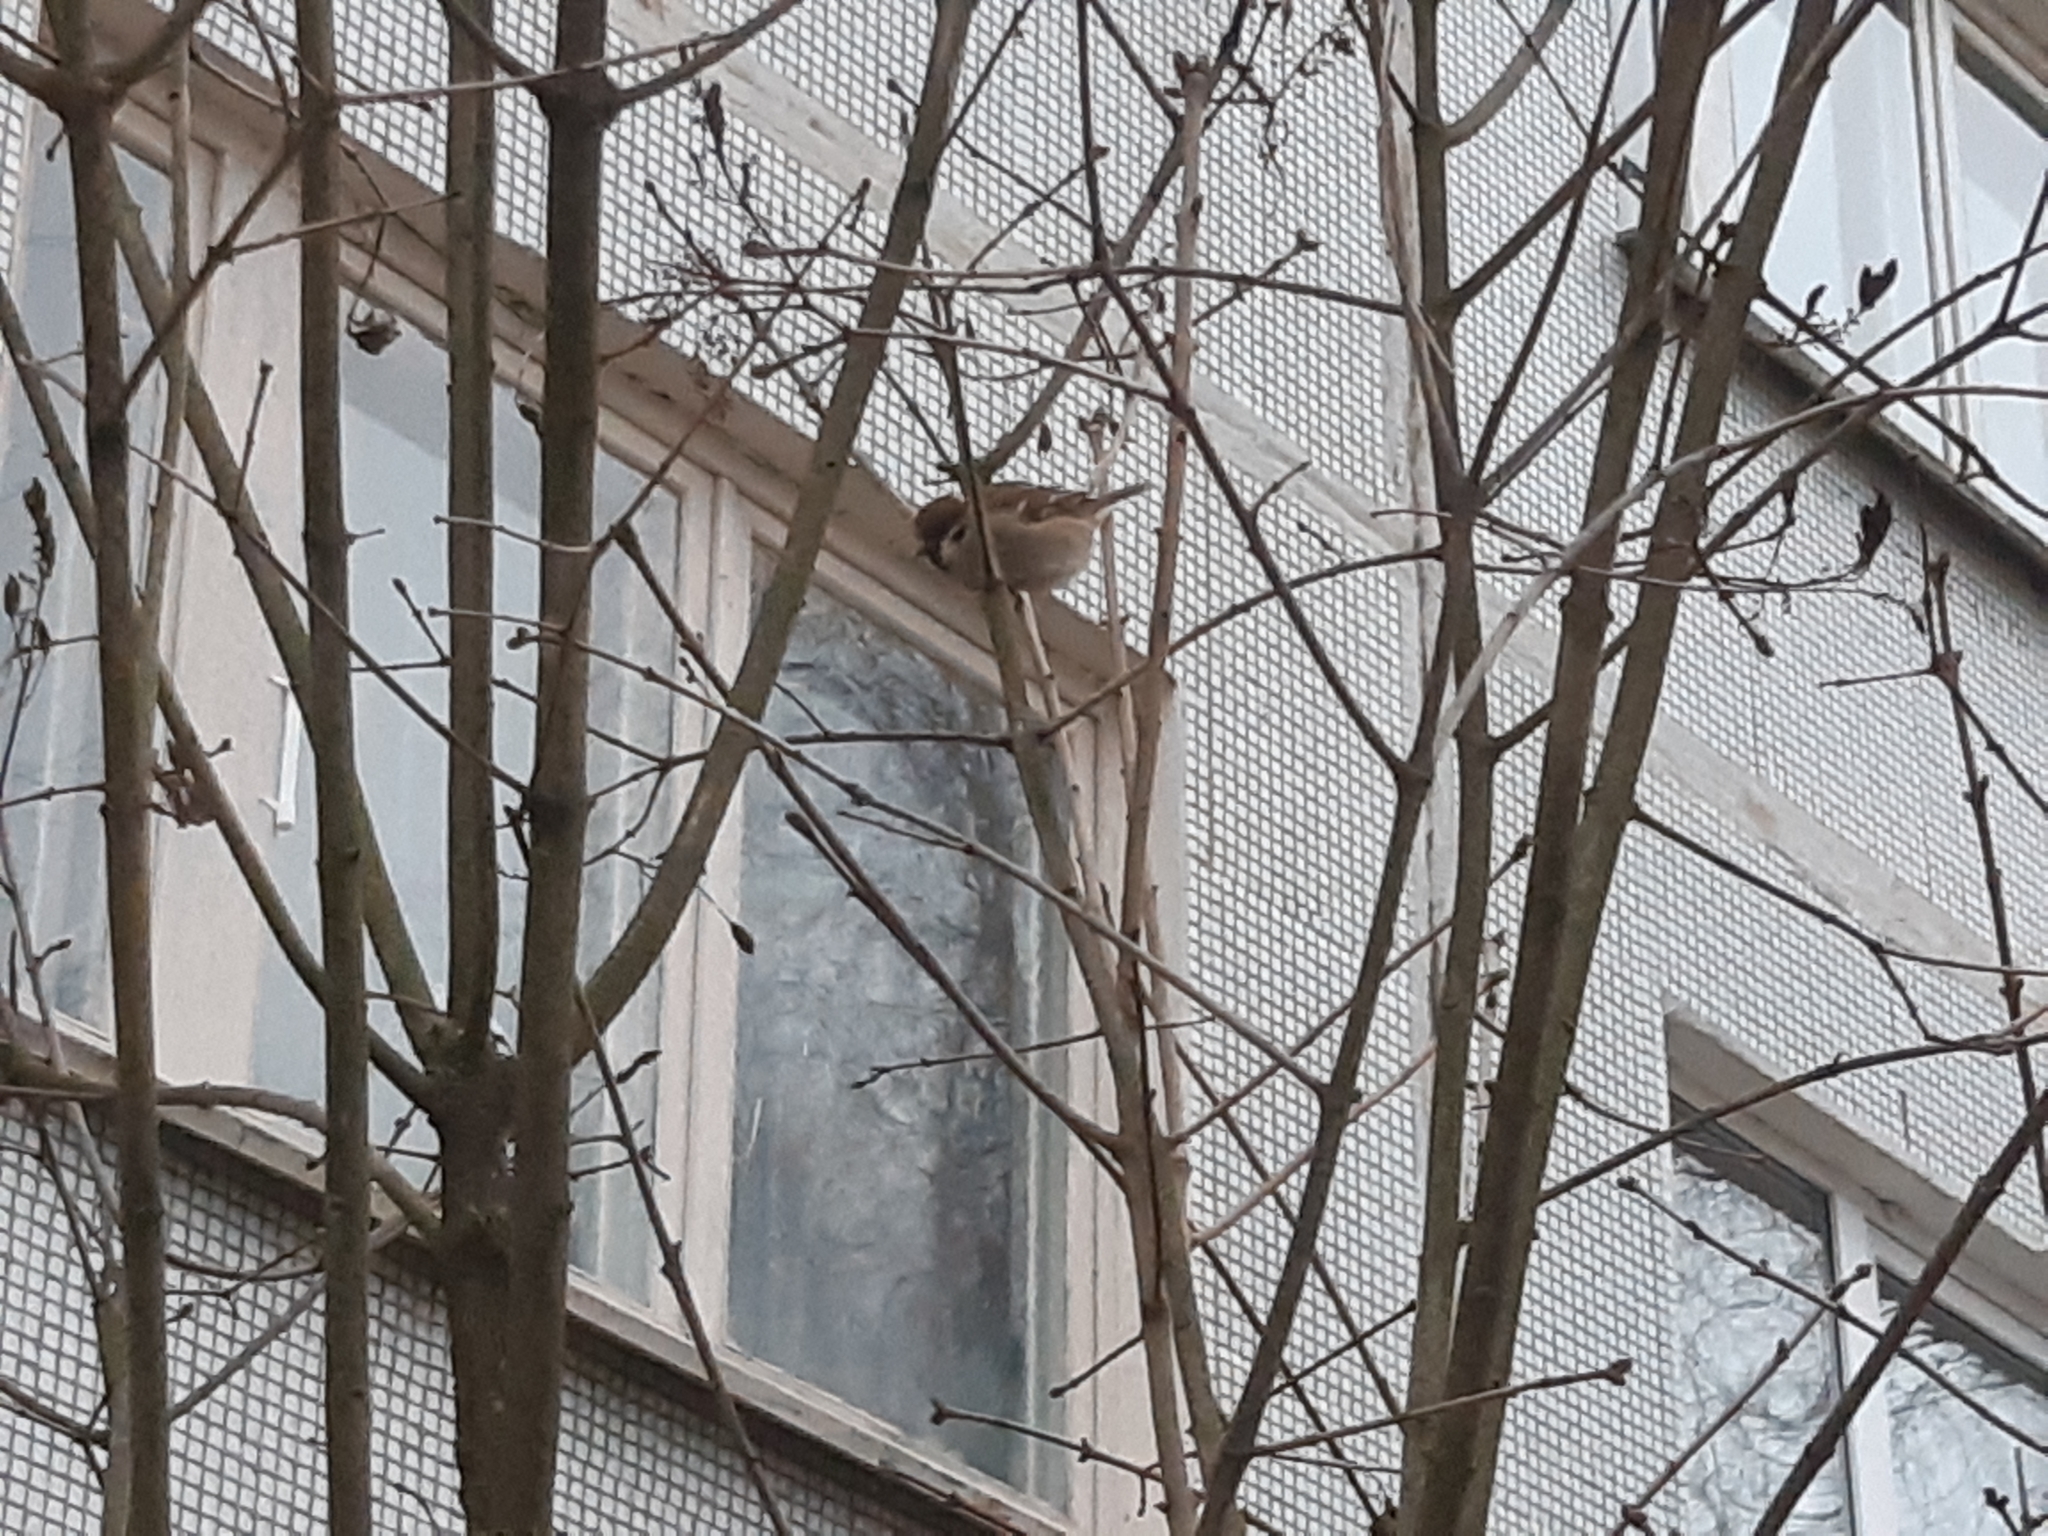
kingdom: Animalia
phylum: Chordata
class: Aves
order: Passeriformes
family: Passeridae
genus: Passer
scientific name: Passer montanus
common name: Eurasian tree sparrow
